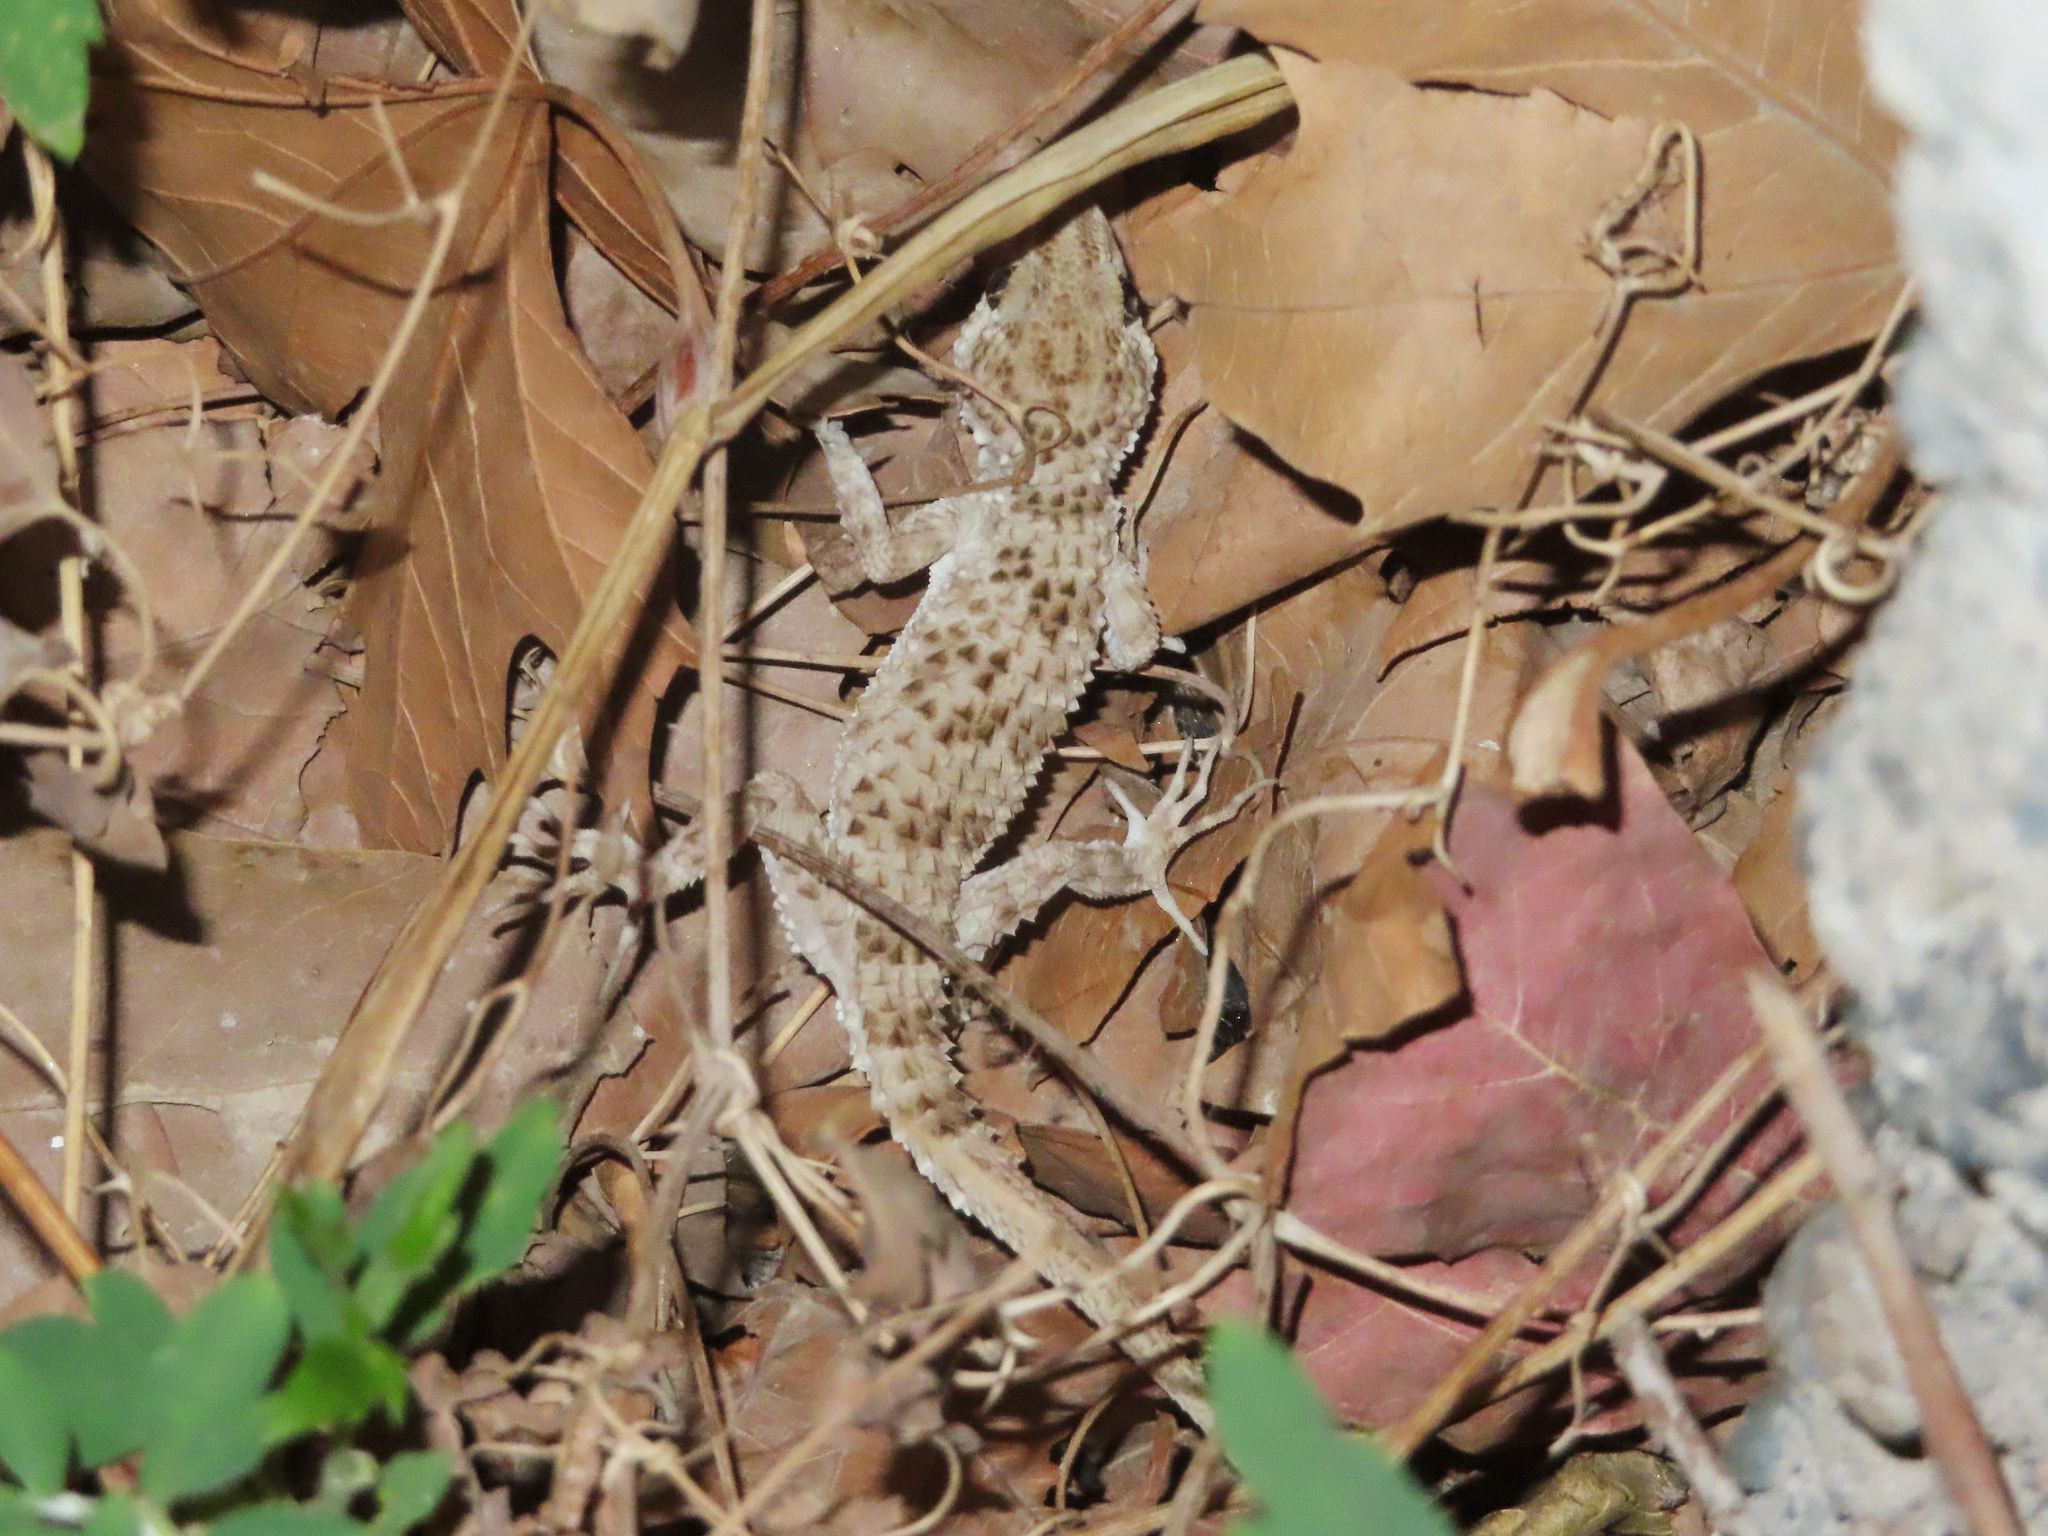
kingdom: Animalia
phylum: Chordata
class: Squamata
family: Gekkonidae
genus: Tenuidactylus
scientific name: Tenuidactylus caspius
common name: Caspian bent-toed gecko
